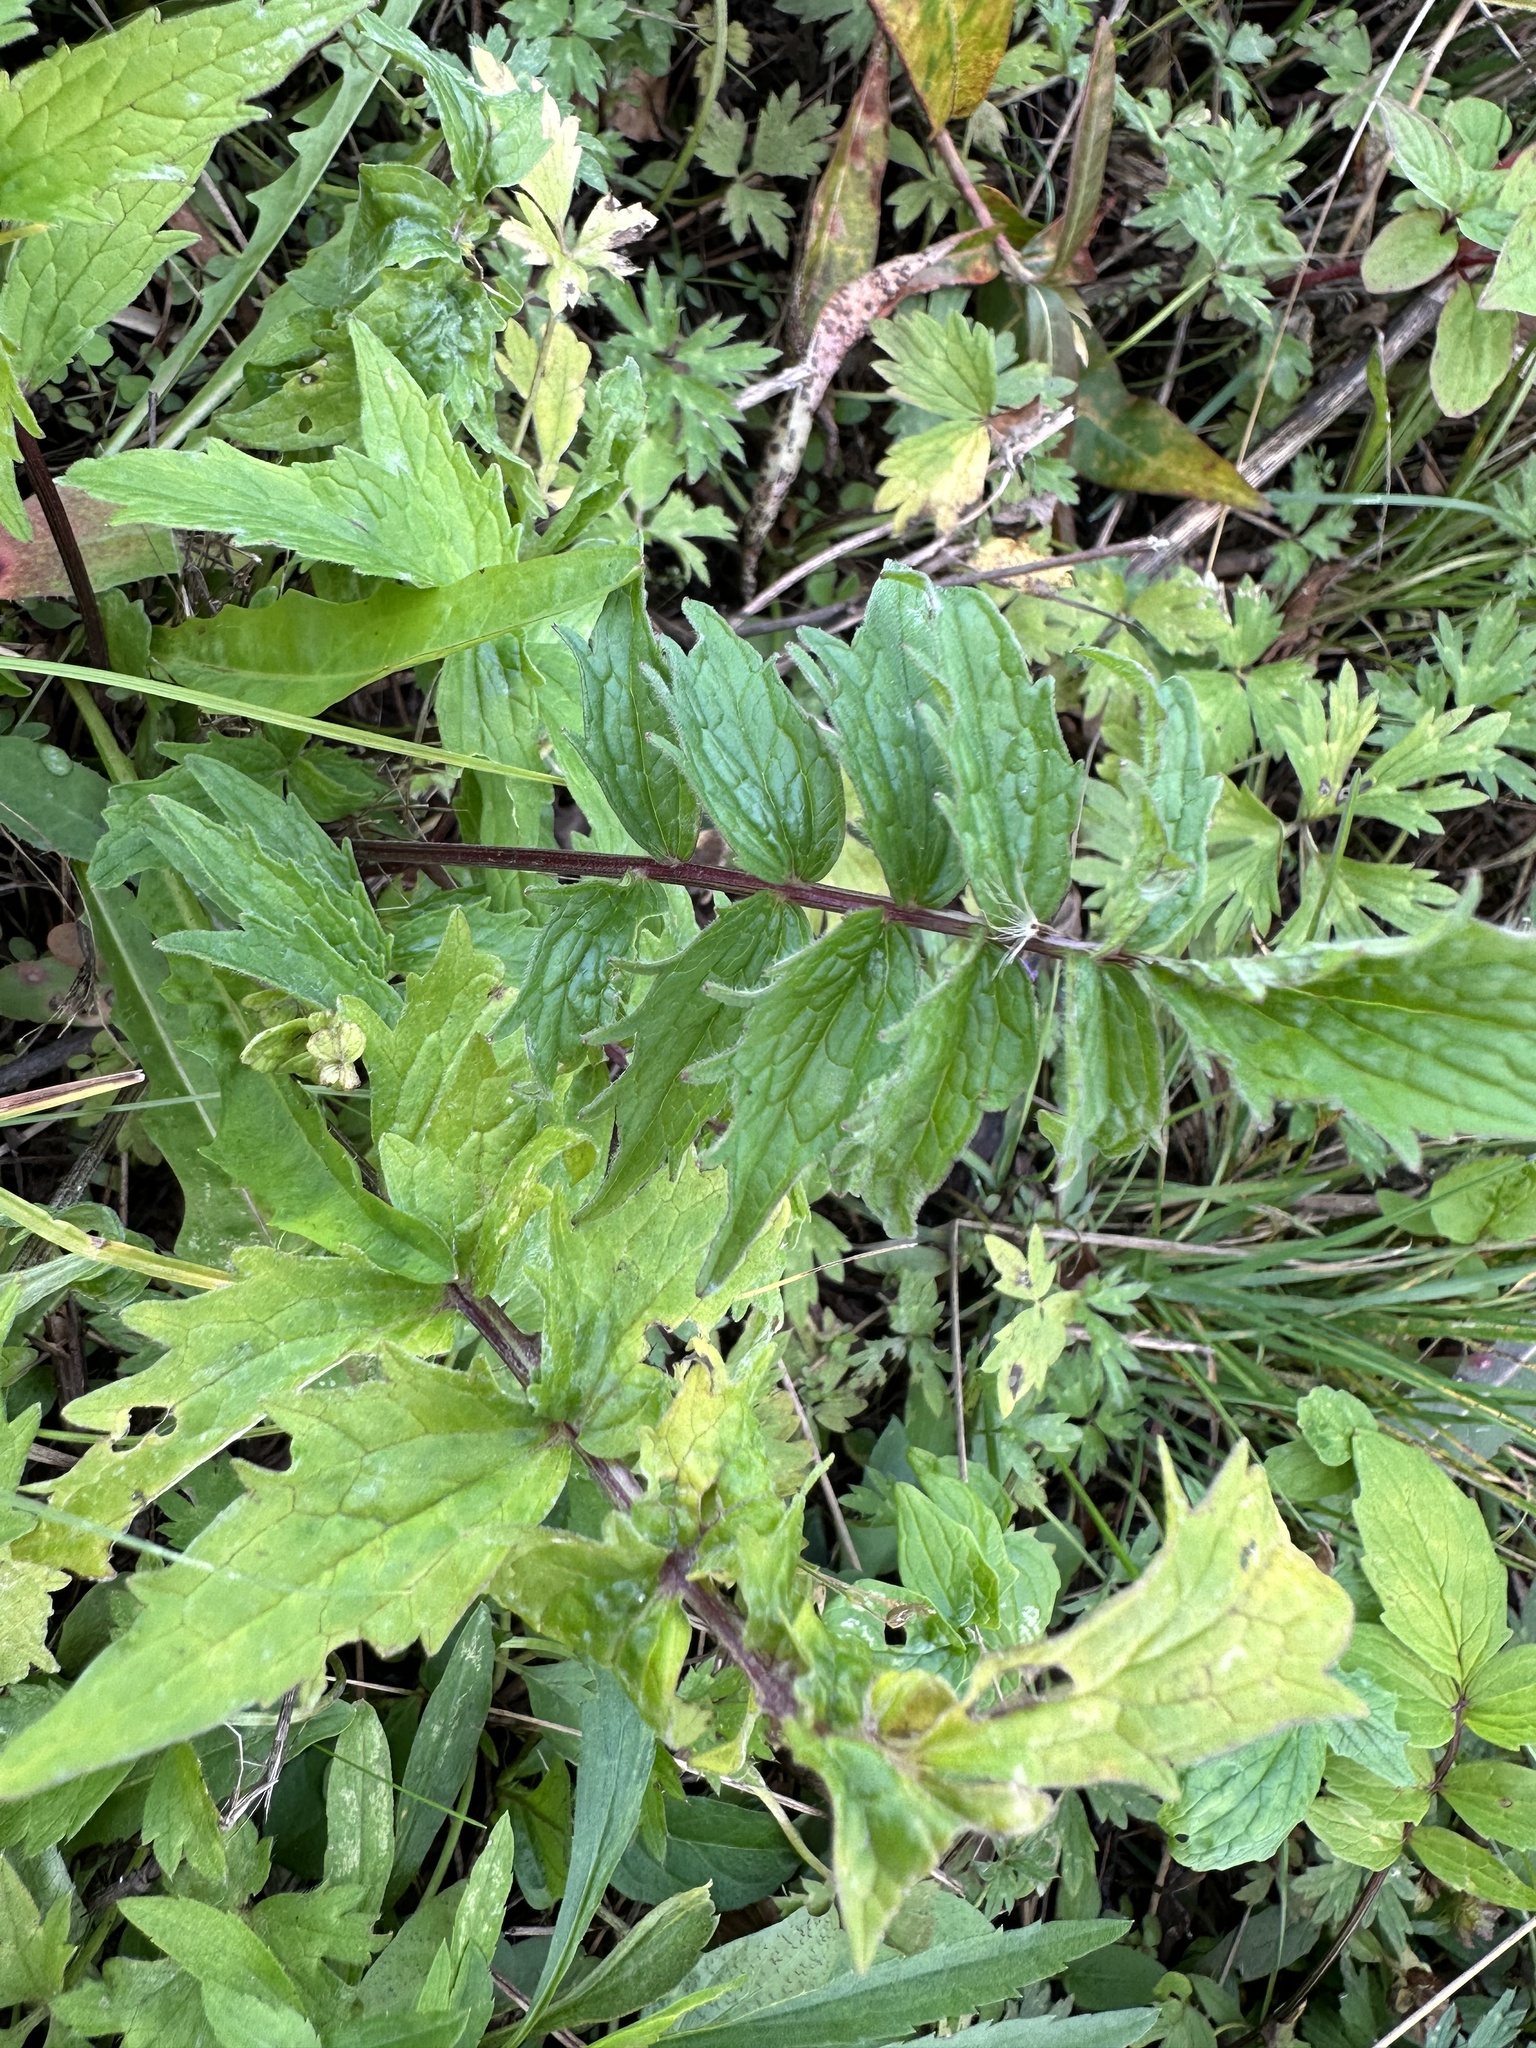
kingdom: Plantae
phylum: Tracheophyta
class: Magnoliopsida
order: Dipsacales
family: Caprifoliaceae
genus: Valeriana
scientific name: Valeriana officinalis
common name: Common valerian
